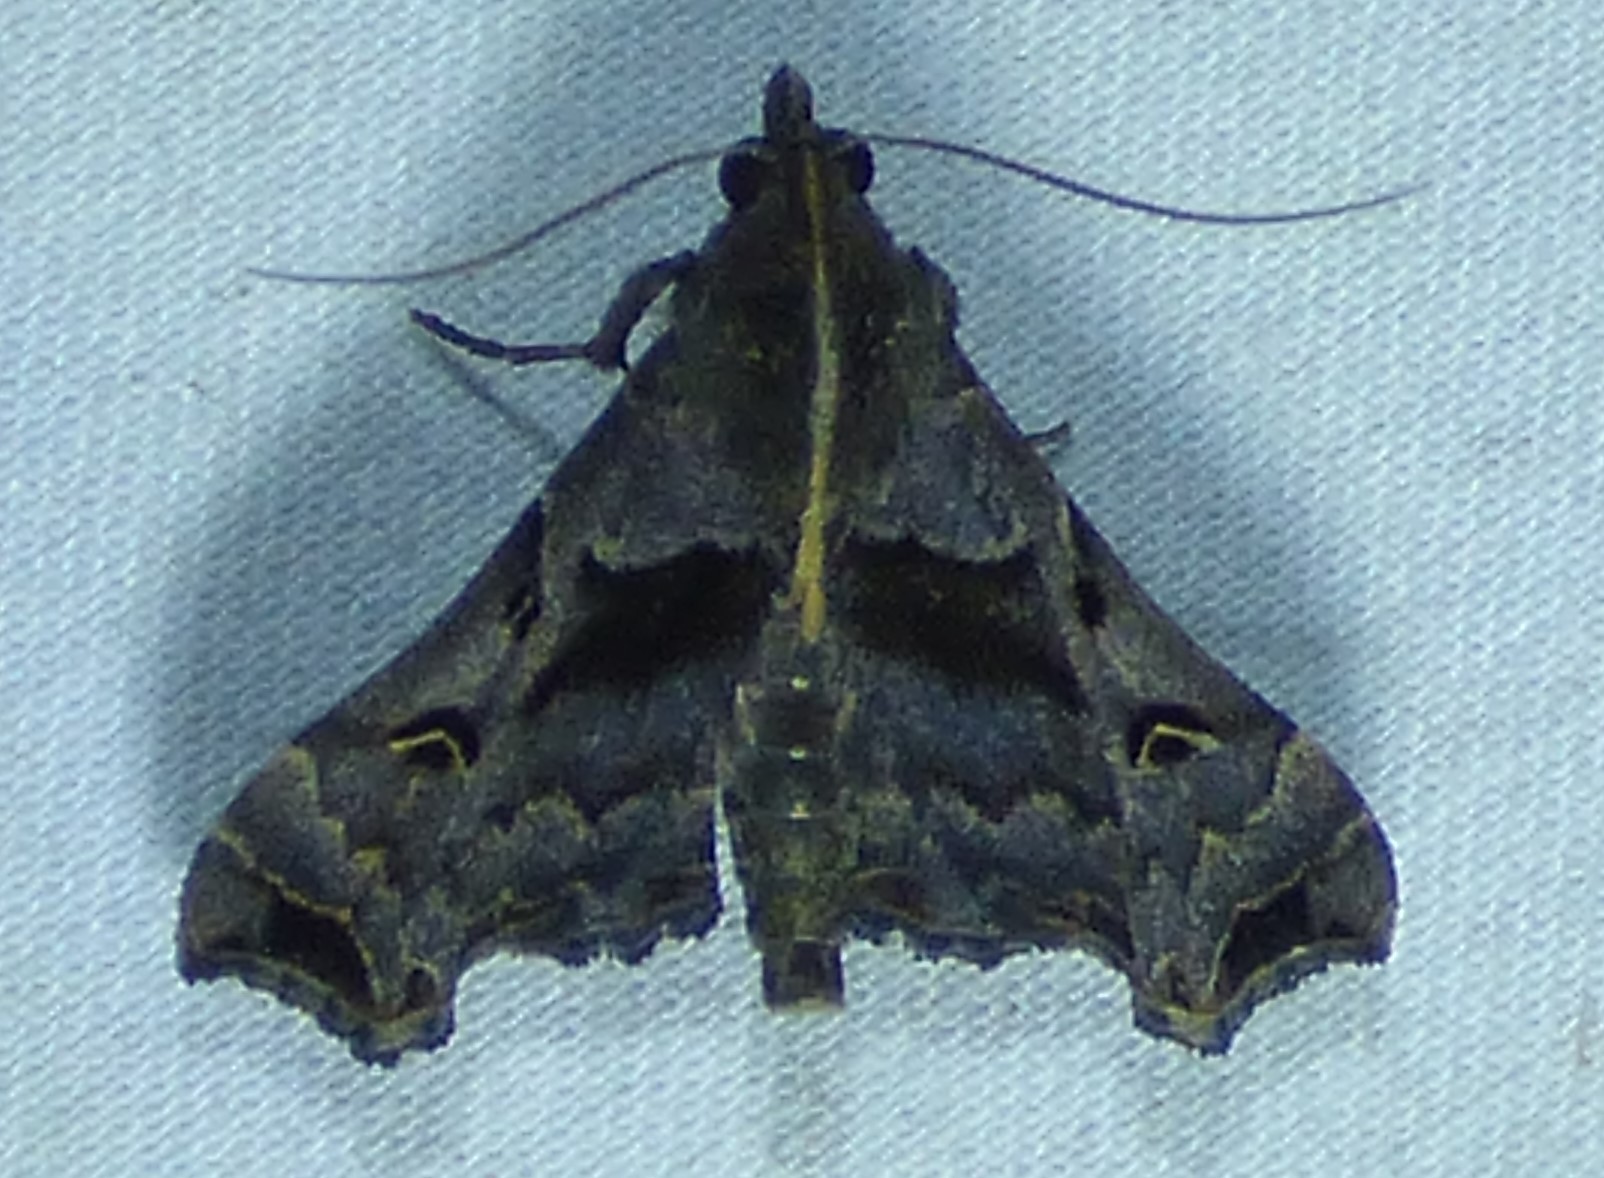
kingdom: Animalia
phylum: Arthropoda
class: Insecta
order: Lepidoptera
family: Erebidae
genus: Palthis
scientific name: Palthis asopialis
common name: Faint-spotted palthis moth
